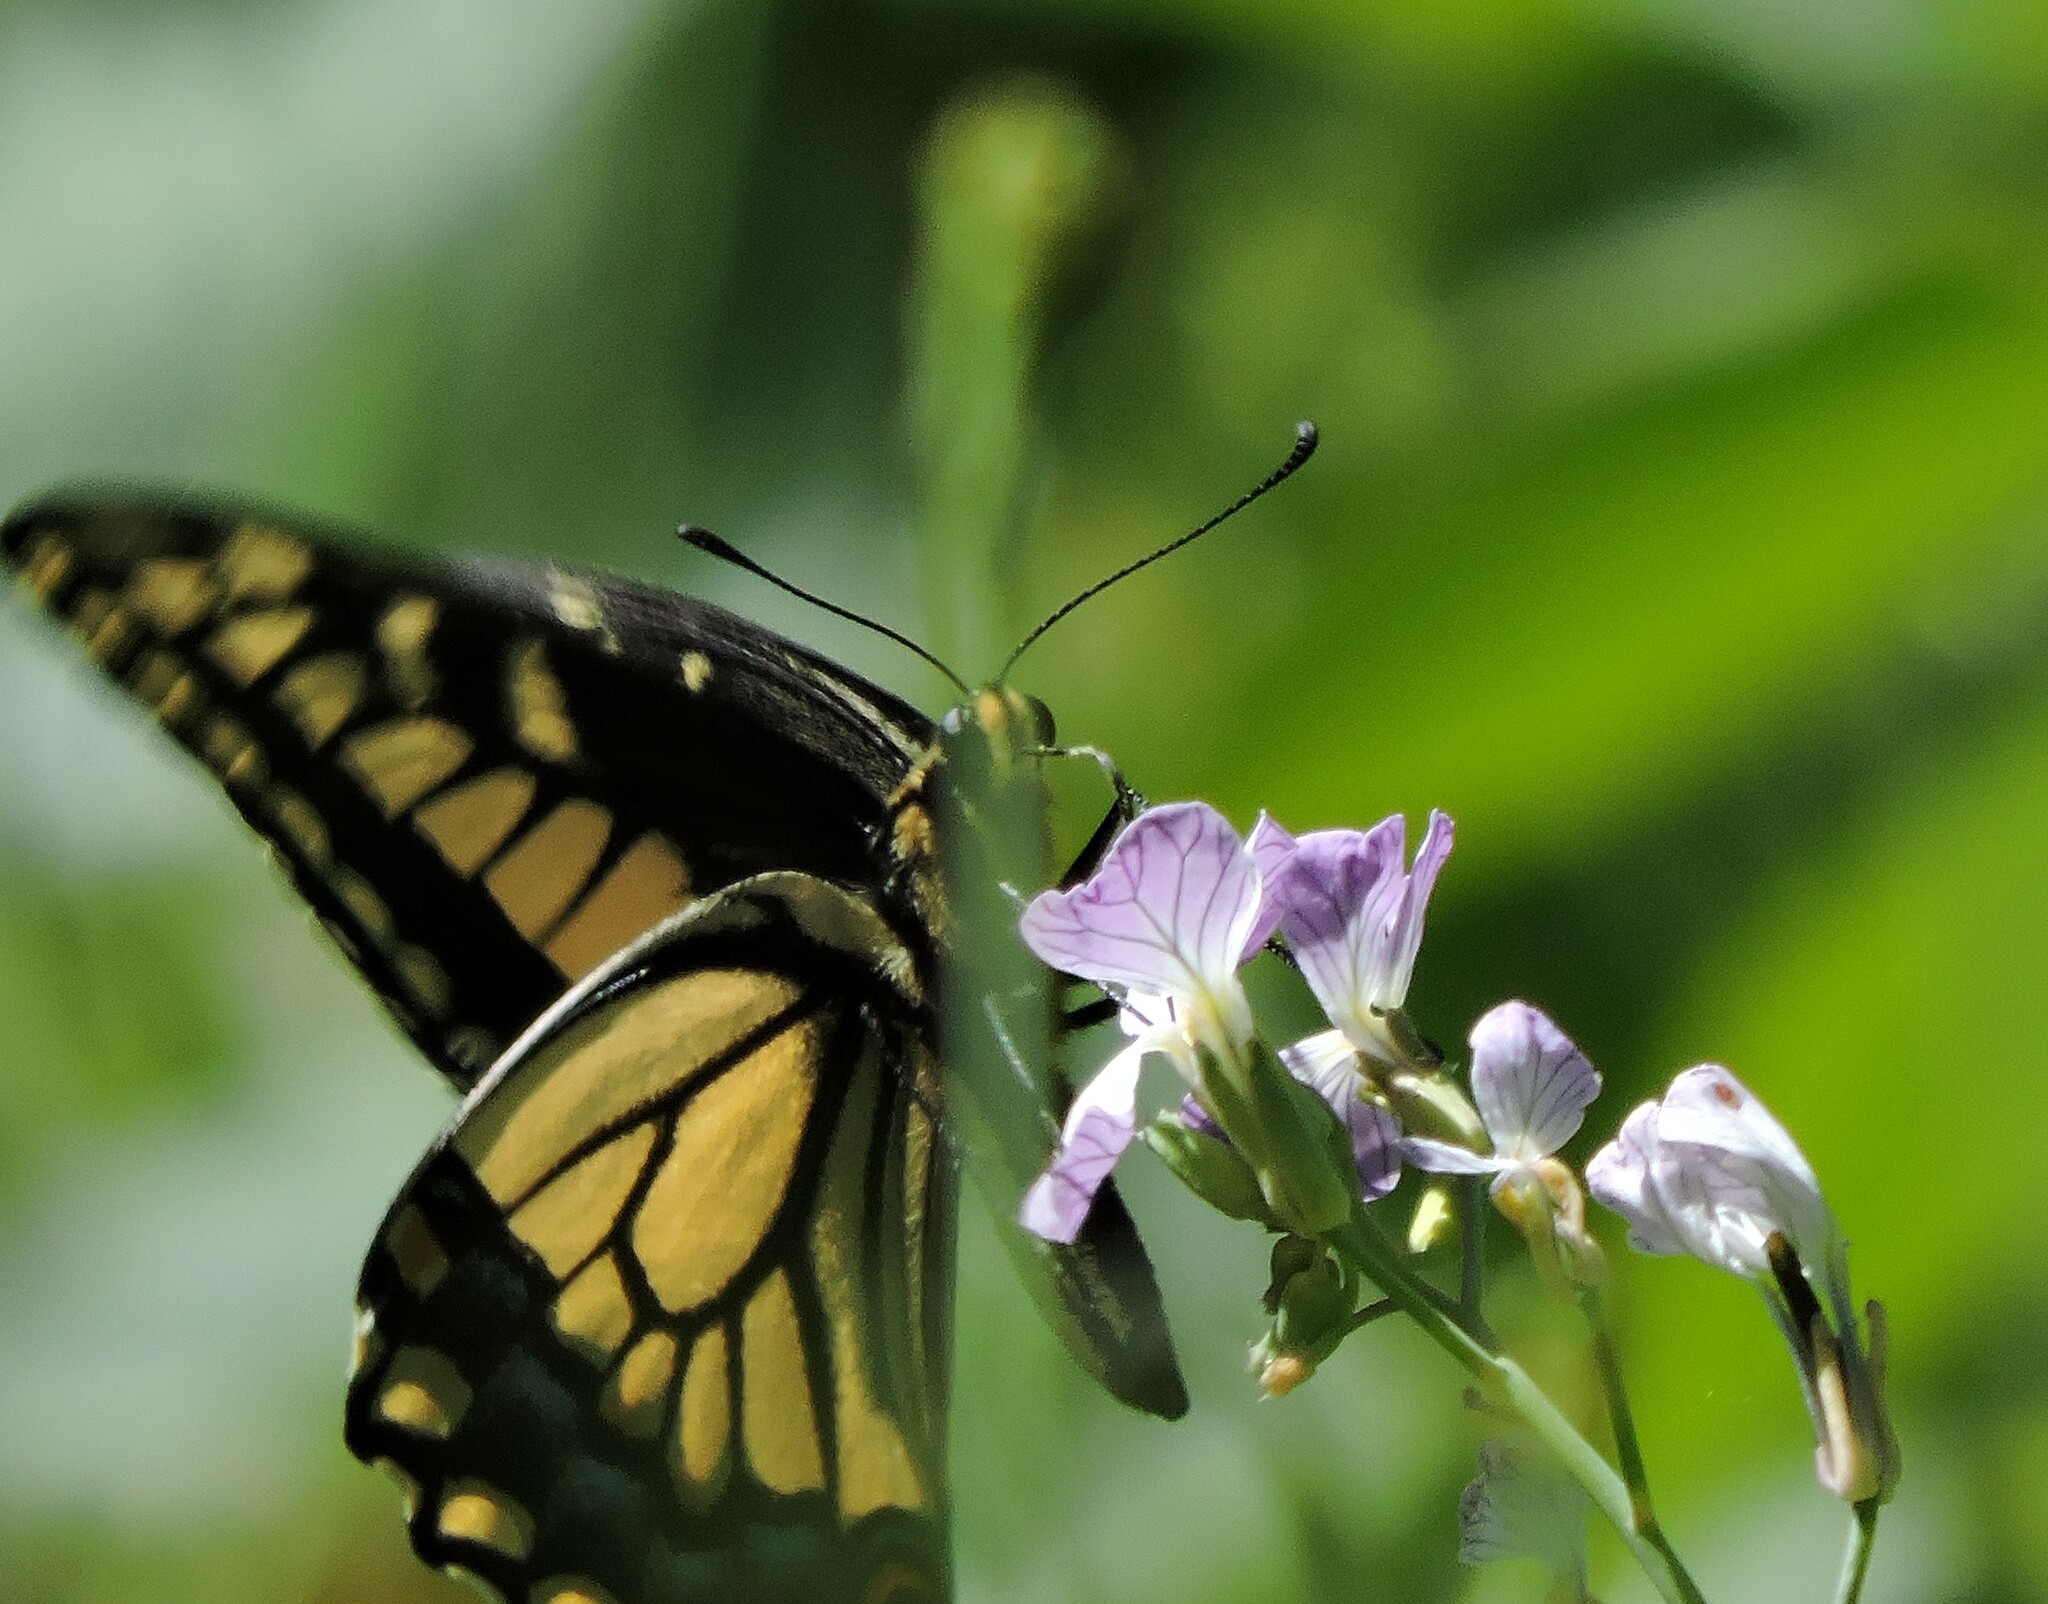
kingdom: Animalia
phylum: Arthropoda
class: Insecta
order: Lepidoptera
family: Papilionidae
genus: Papilio
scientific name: Papilio zelicaon
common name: Anise swallowtail
